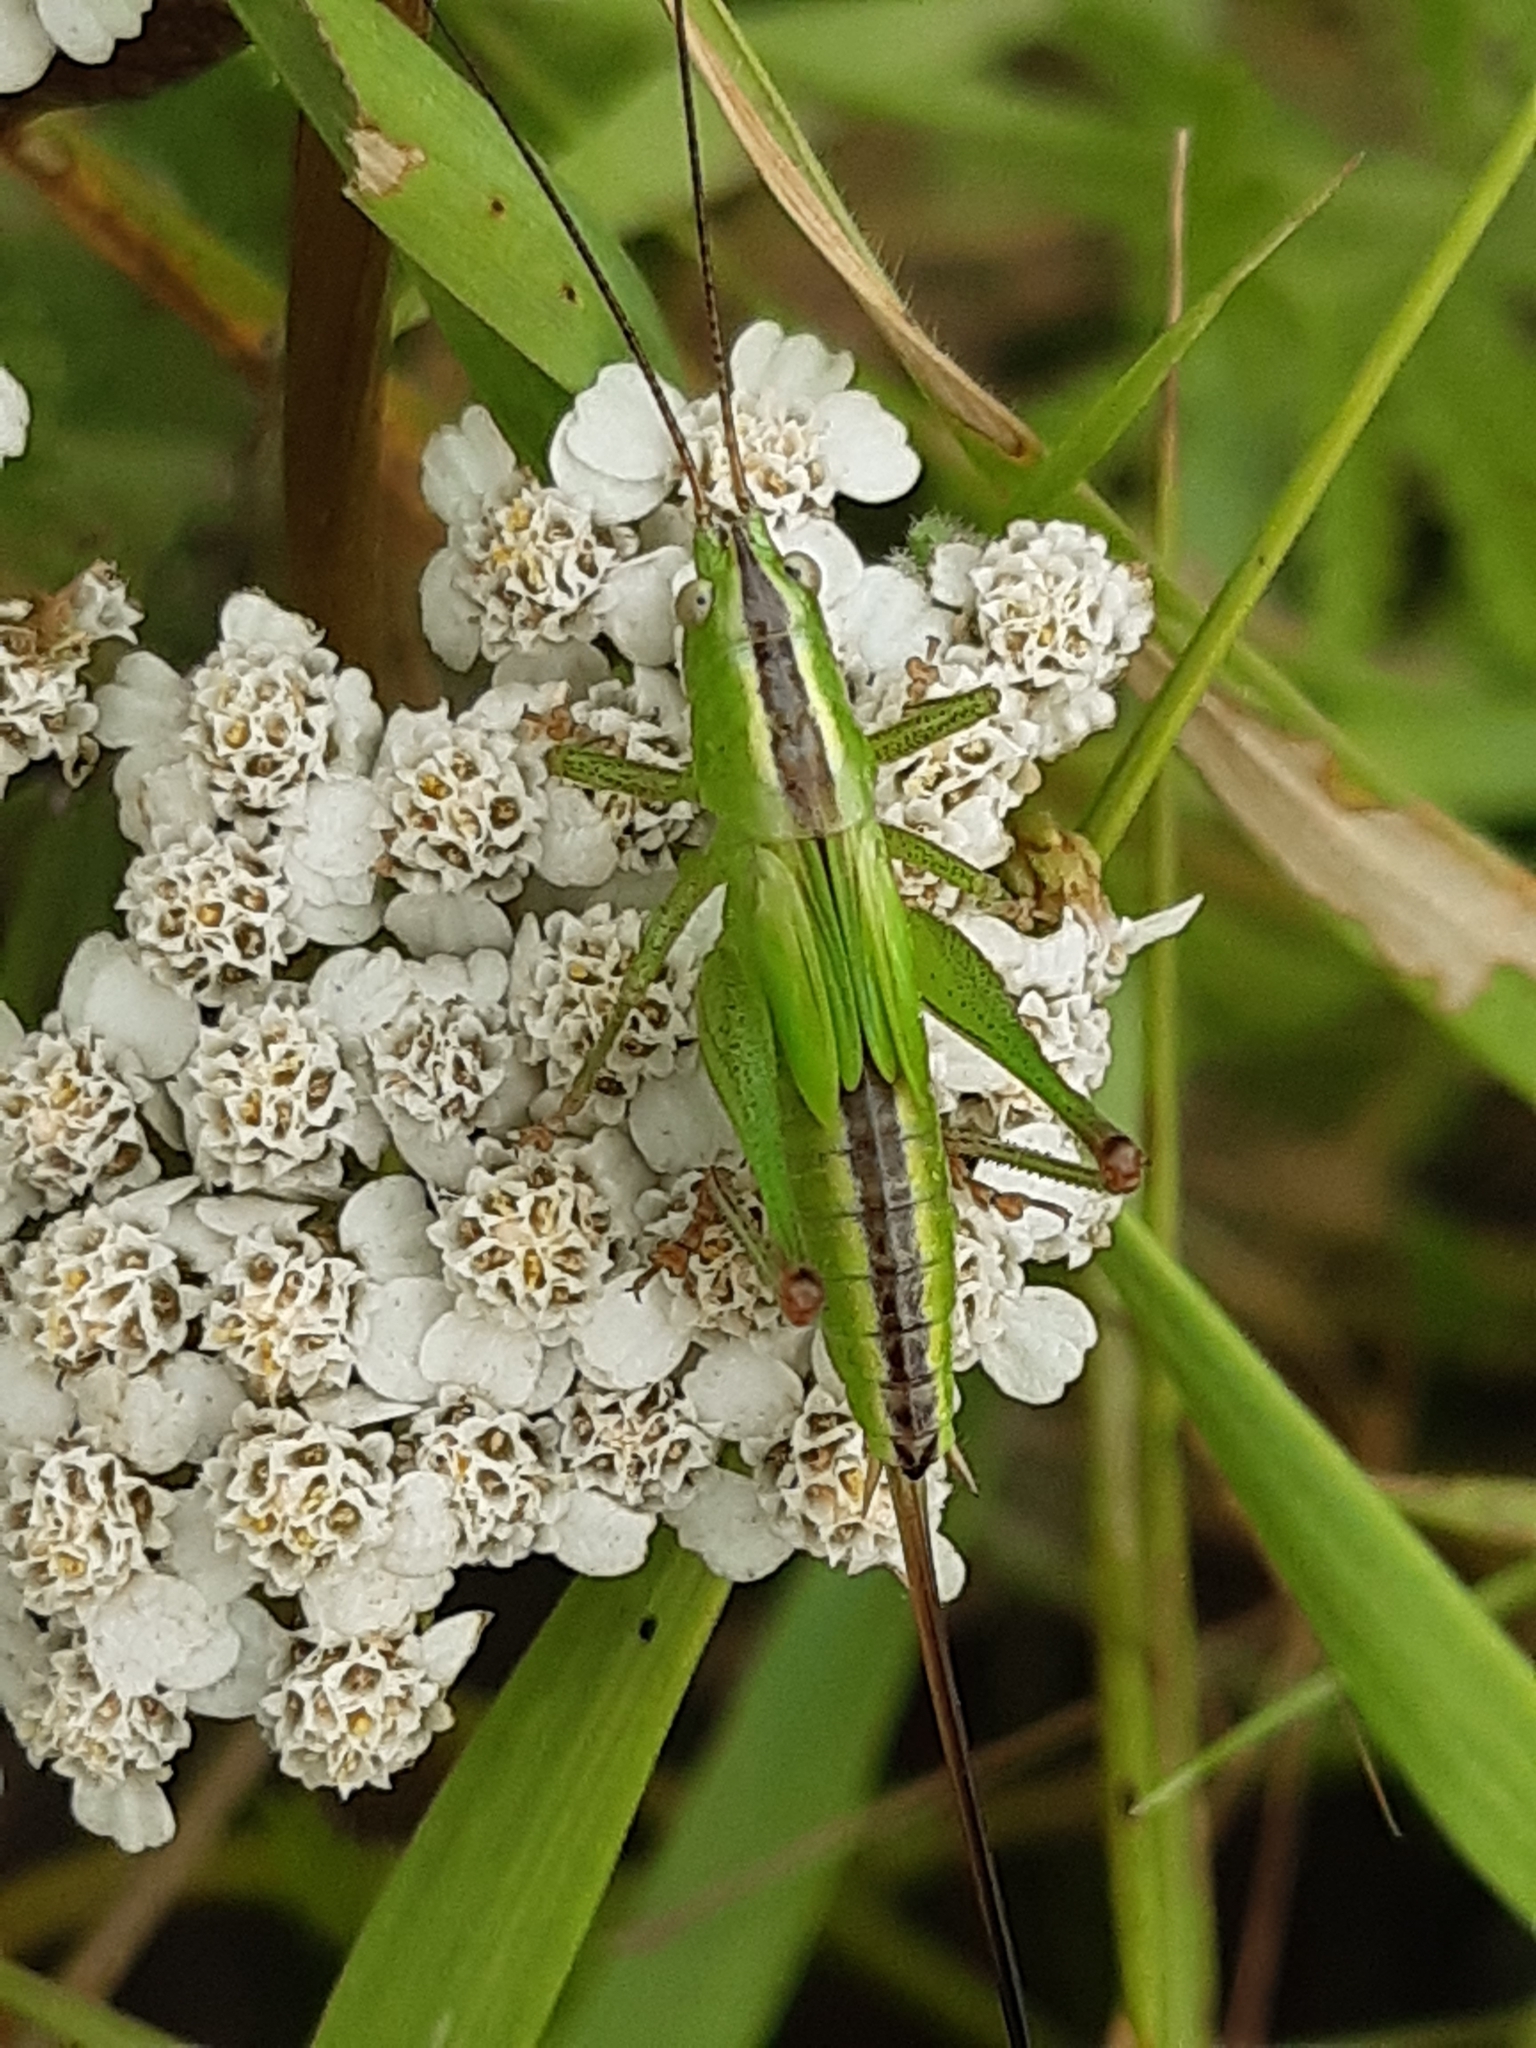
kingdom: Animalia
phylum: Arthropoda
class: Insecta
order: Orthoptera
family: Tettigoniidae
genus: Conocephalus
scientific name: Conocephalus fuscus
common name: Long-winged conehead
